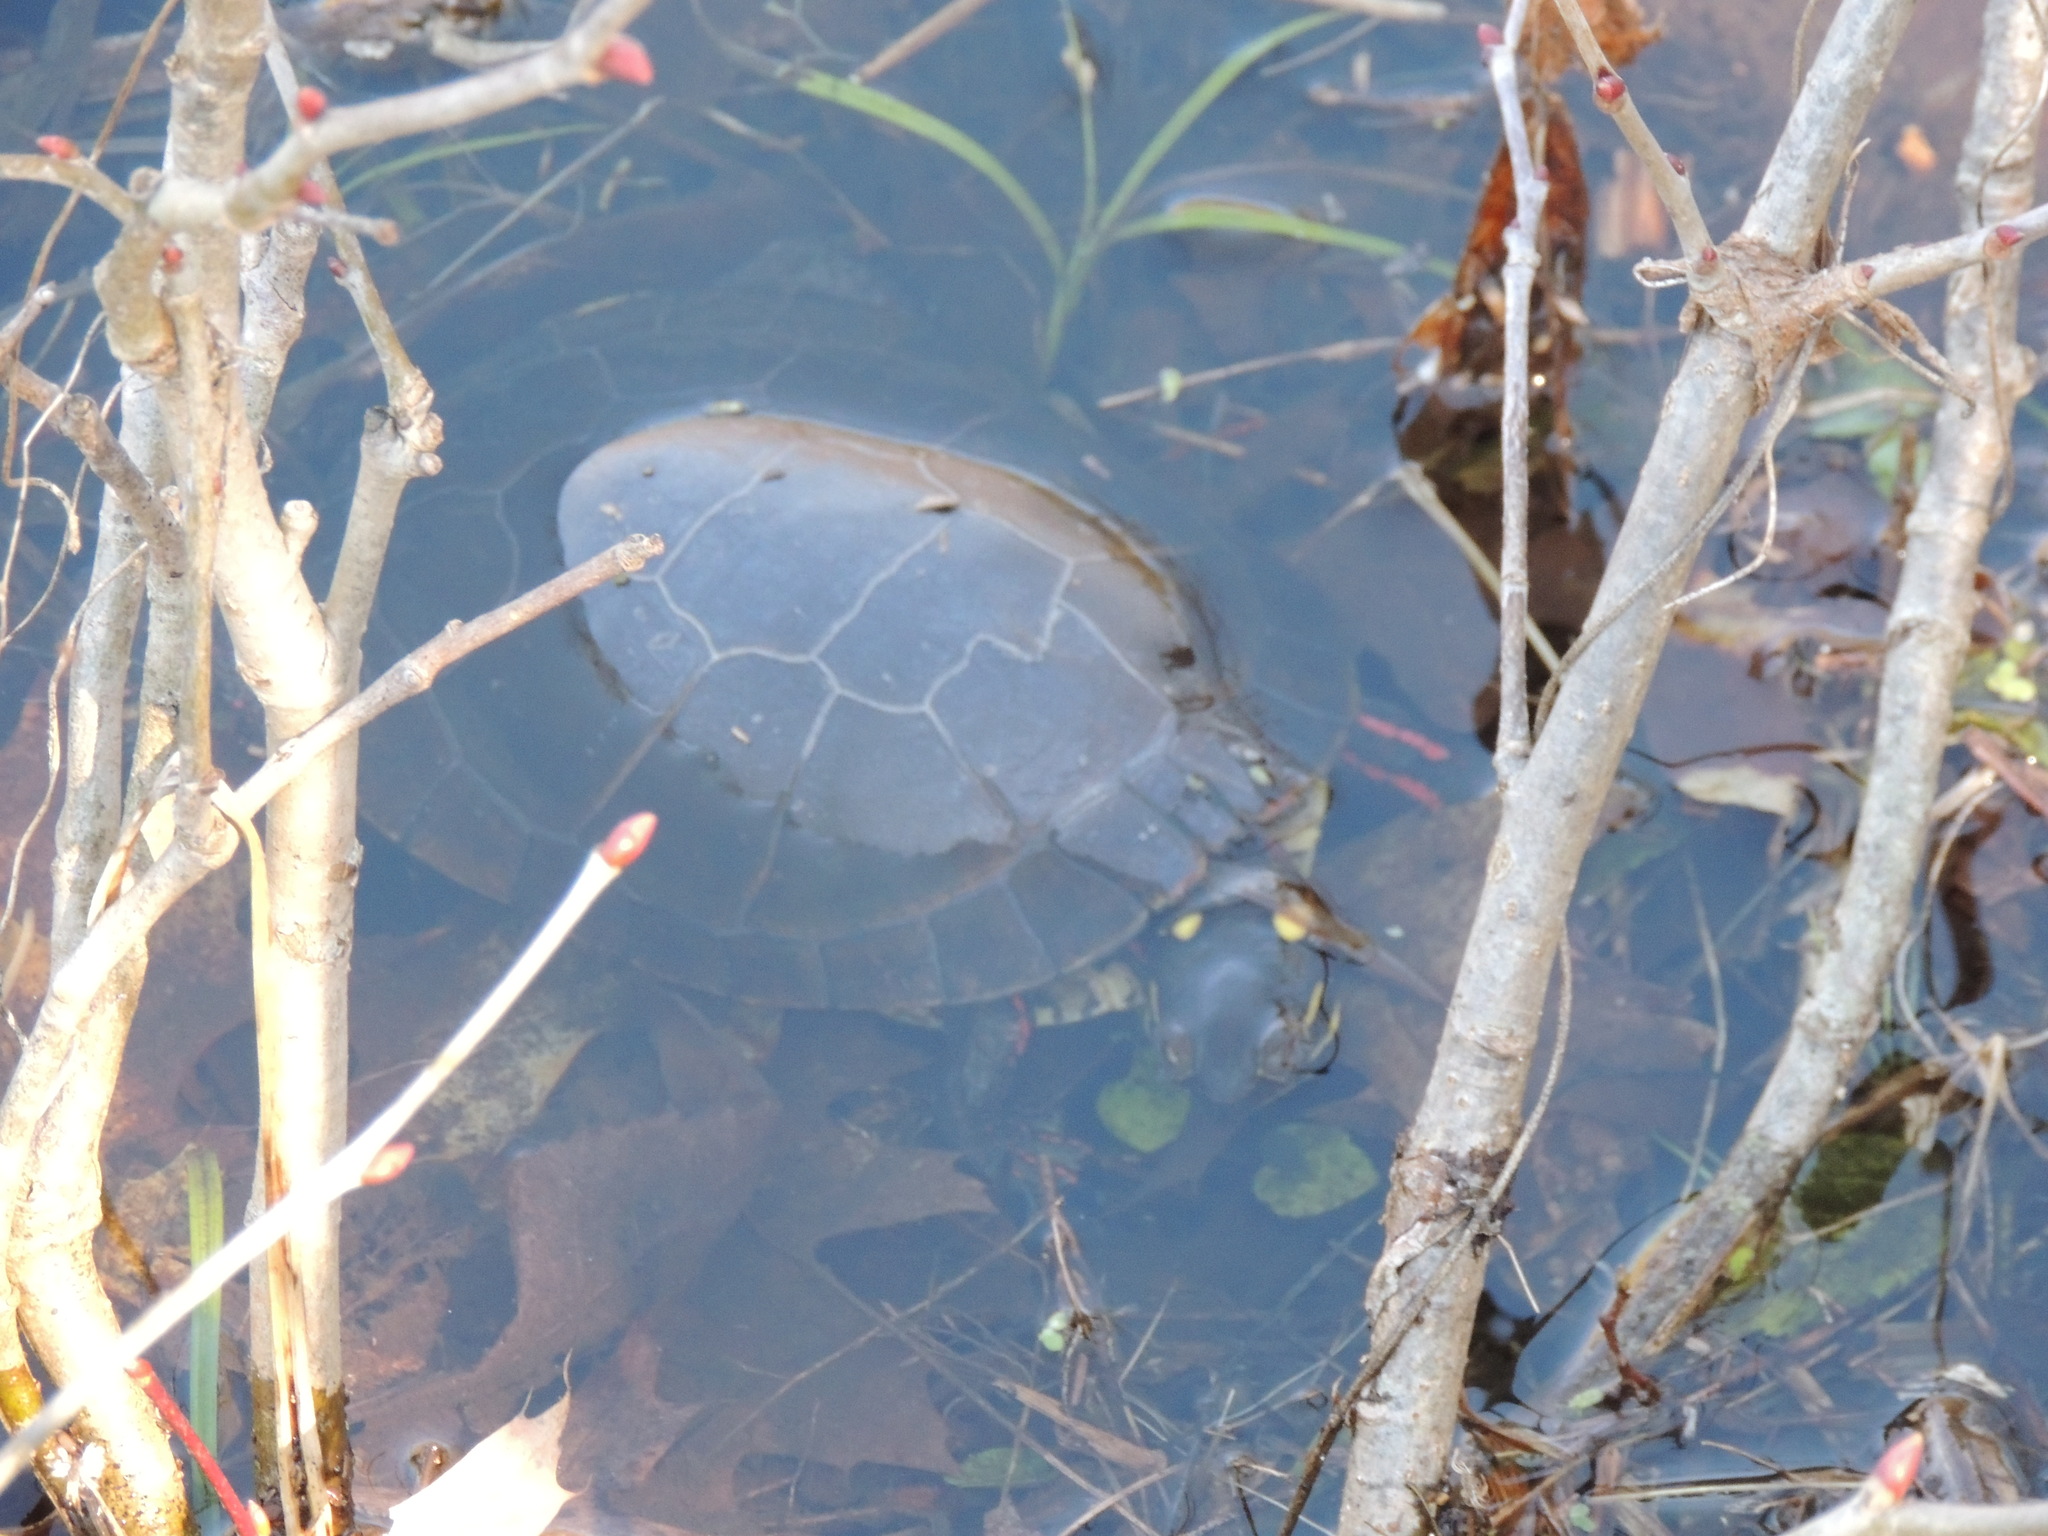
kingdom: Animalia
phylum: Chordata
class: Testudines
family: Emydidae
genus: Chrysemys
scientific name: Chrysemys picta
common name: Painted turtle
